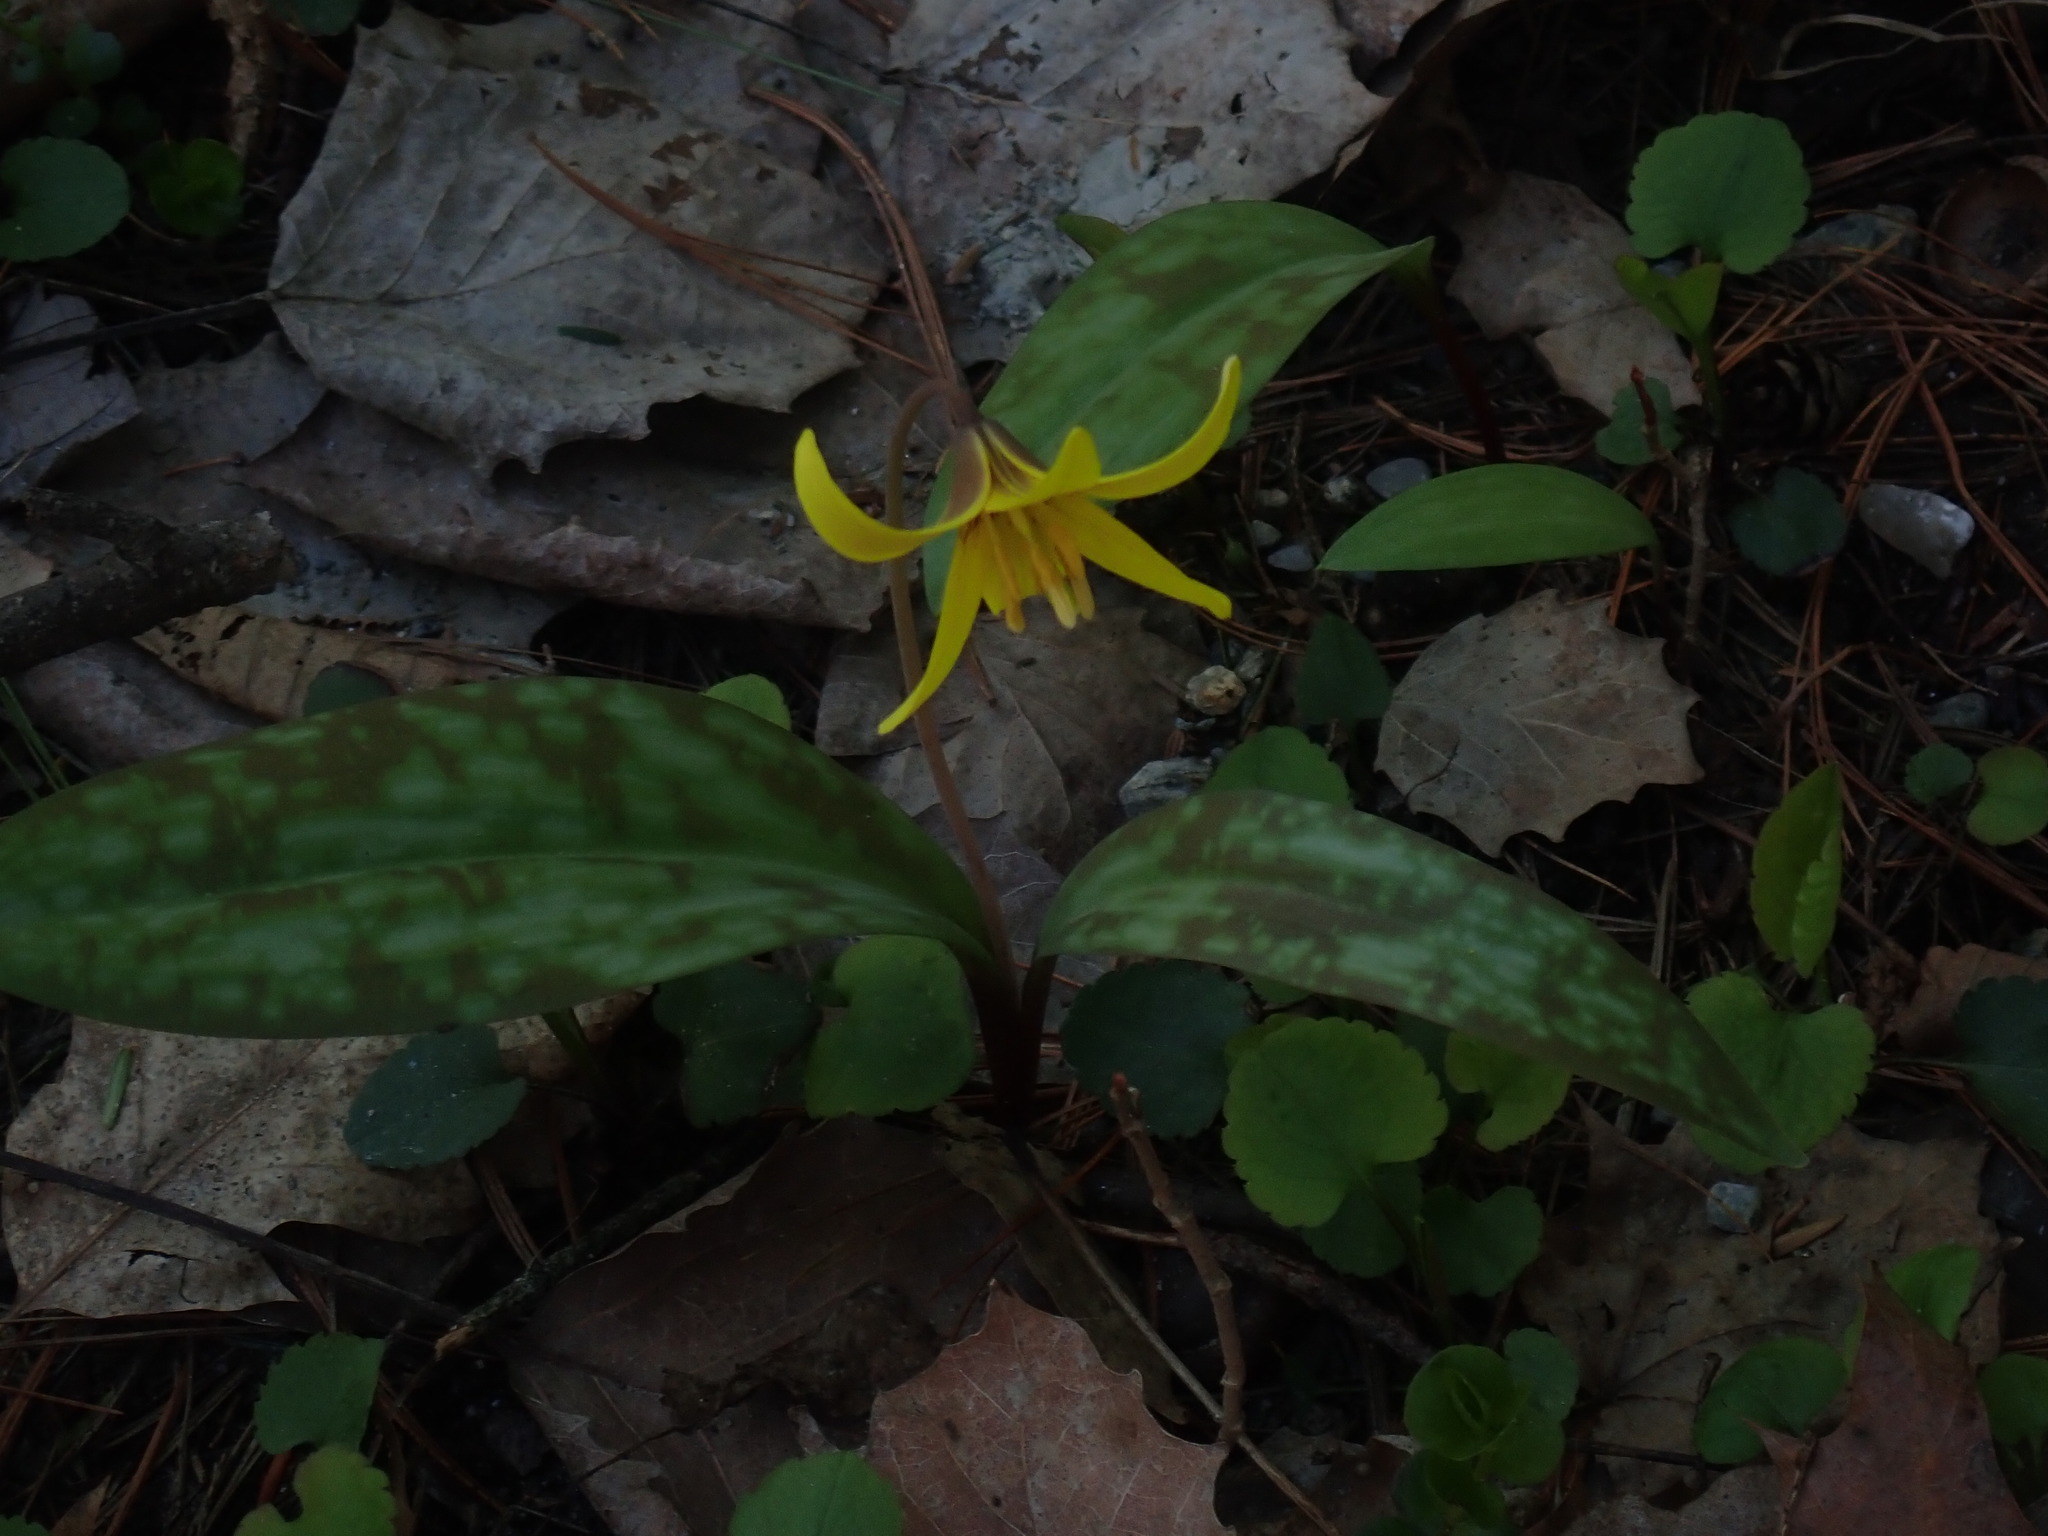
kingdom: Plantae
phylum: Tracheophyta
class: Liliopsida
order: Liliales
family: Liliaceae
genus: Erythronium
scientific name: Erythronium americanum
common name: Yellow adder's-tongue
